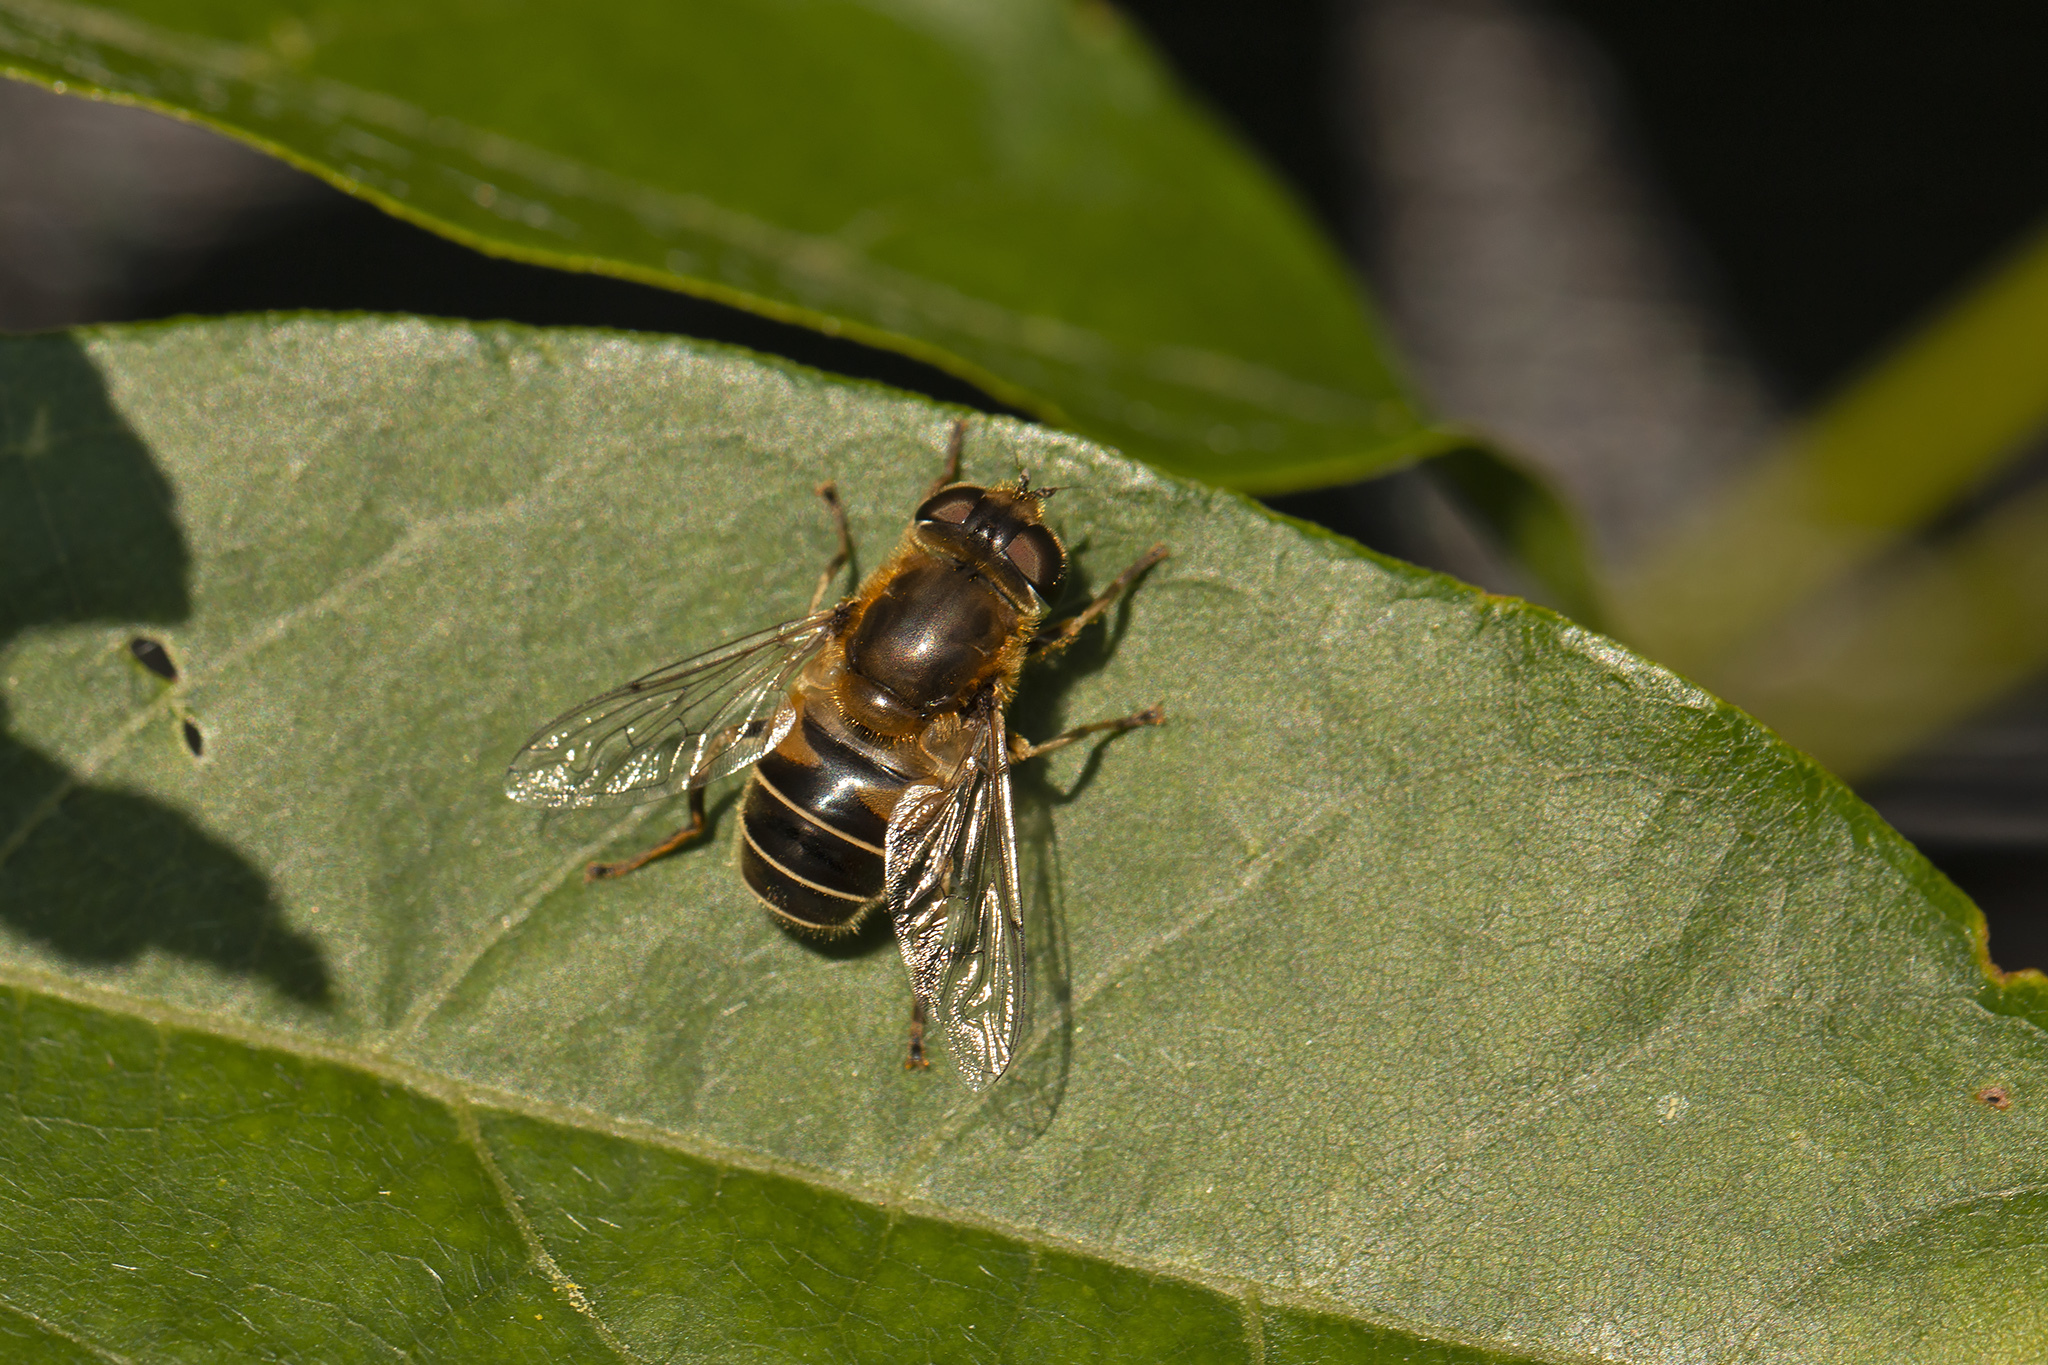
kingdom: Animalia
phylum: Arthropoda
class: Insecta
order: Diptera
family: Syrphidae
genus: Eristalis
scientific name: Eristalis nemorum
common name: Orange-spined drone fly
